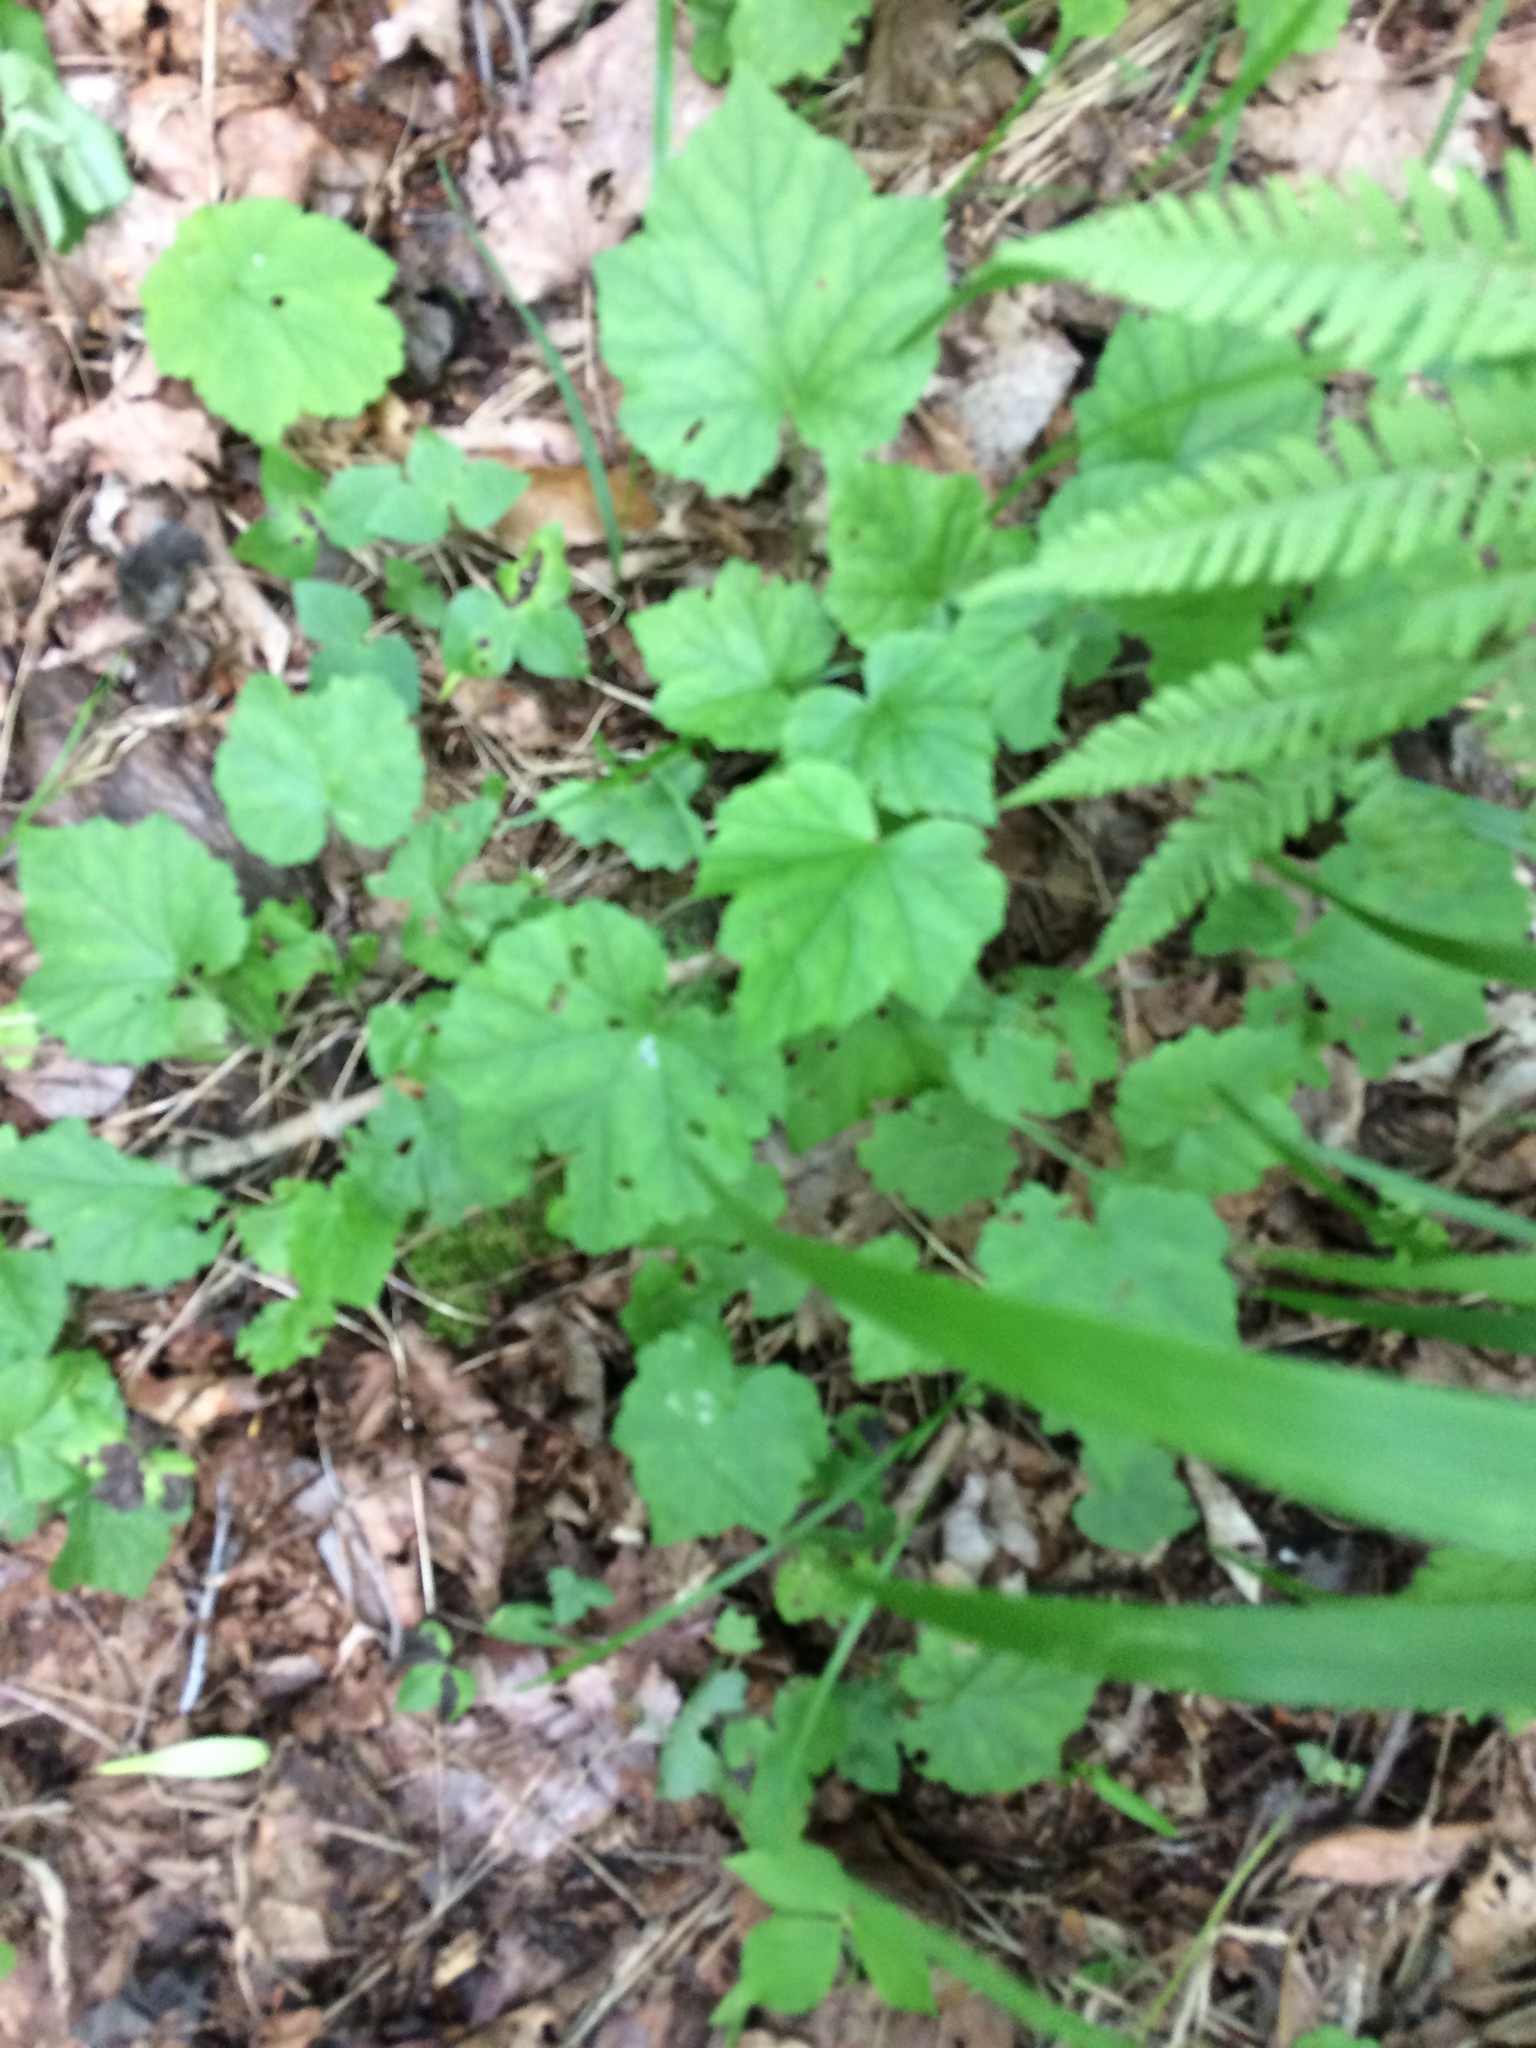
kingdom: Plantae
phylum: Tracheophyta
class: Magnoliopsida
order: Saxifragales
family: Saxifragaceae
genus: Tiarella
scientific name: Tiarella stolonifera
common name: Stoloniferous foamflower
